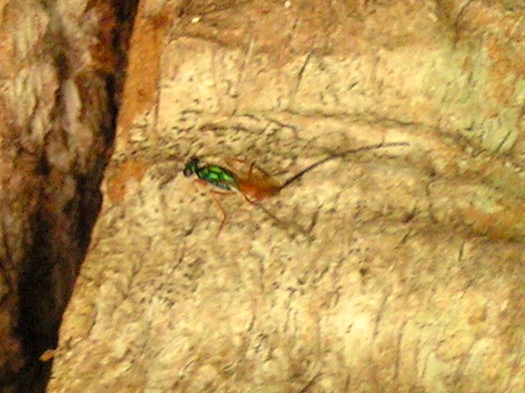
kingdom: Animalia
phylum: Arthropoda
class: Insecta
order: Hymenoptera
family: Eupelmidae
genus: Phlebopenes
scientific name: Phlebopenes
